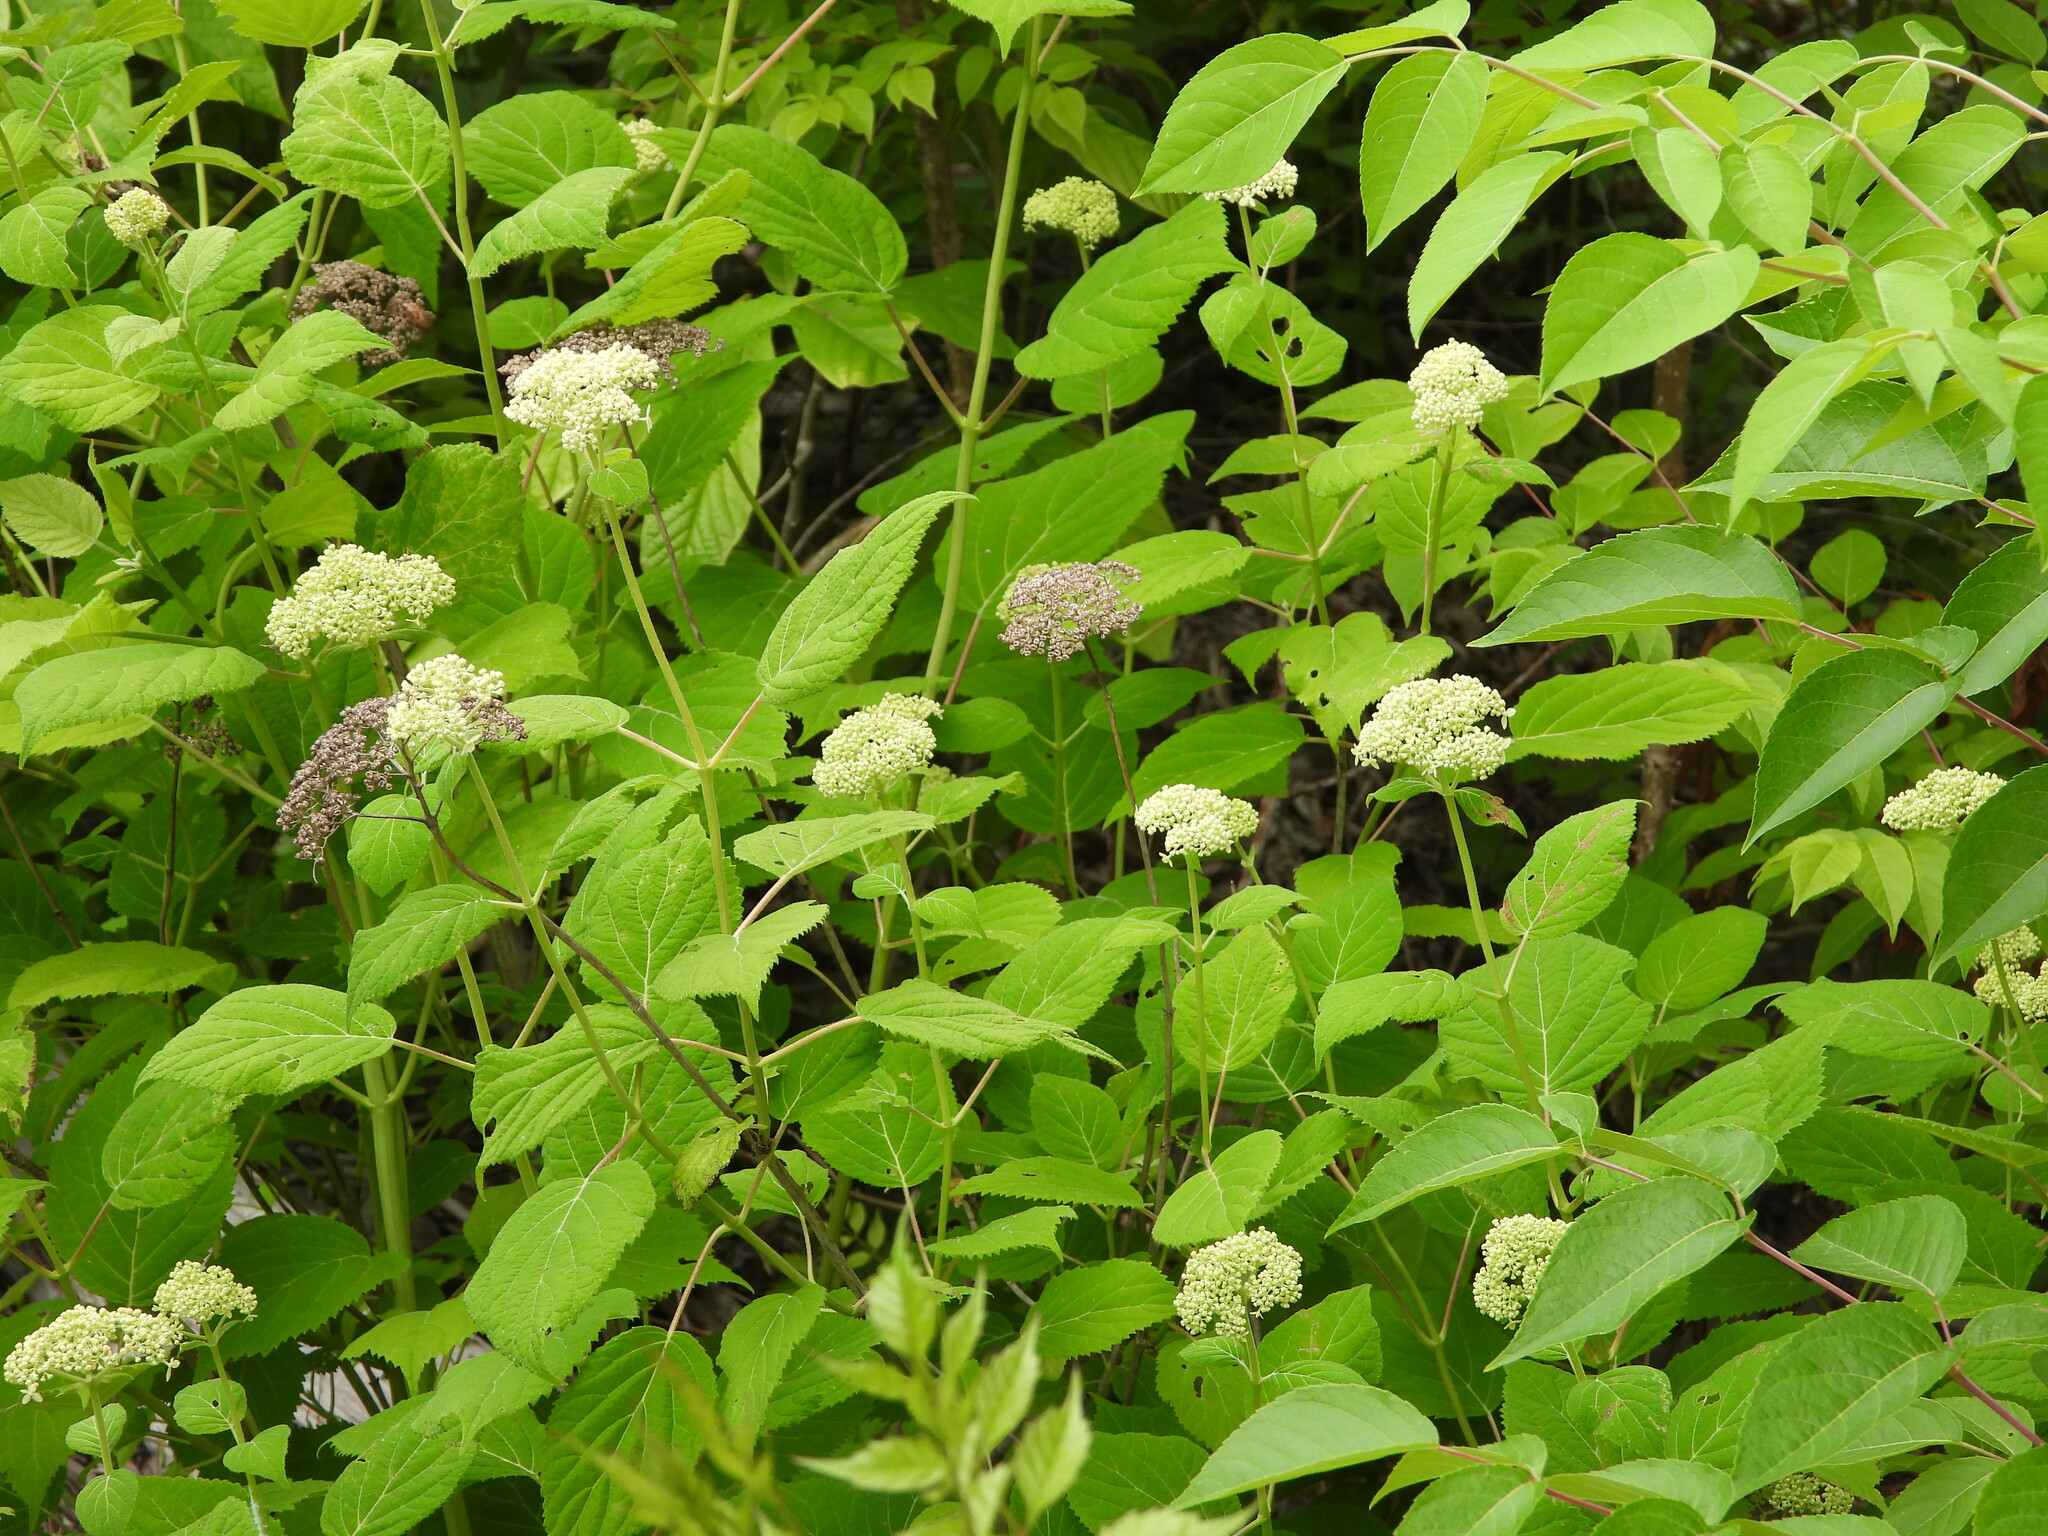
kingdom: Plantae
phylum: Tracheophyta
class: Magnoliopsida
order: Cornales
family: Hydrangeaceae
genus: Hydrangea
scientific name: Hydrangea arborescens
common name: Sevenbark
